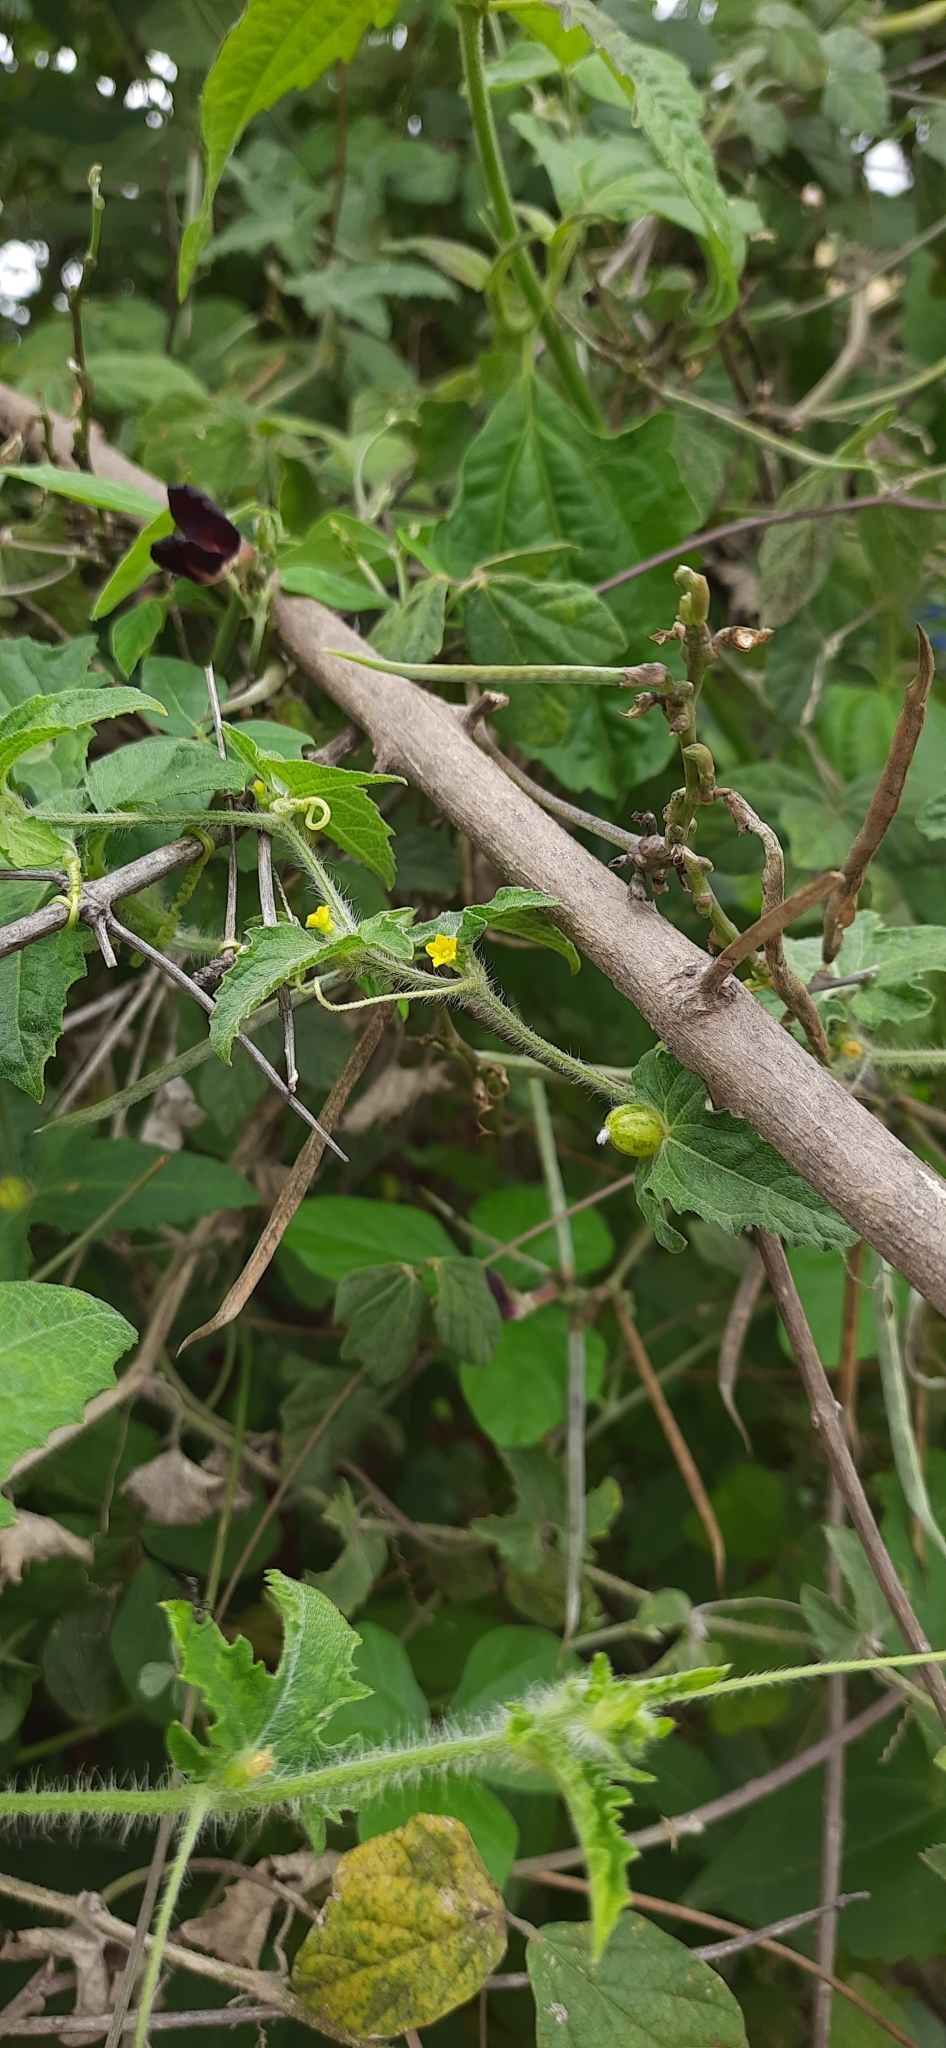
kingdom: Plantae
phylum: Tracheophyta
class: Magnoliopsida
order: Cucurbitales
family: Cucurbitaceae
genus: Cucumis
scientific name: Cucumis maderaspatanus
